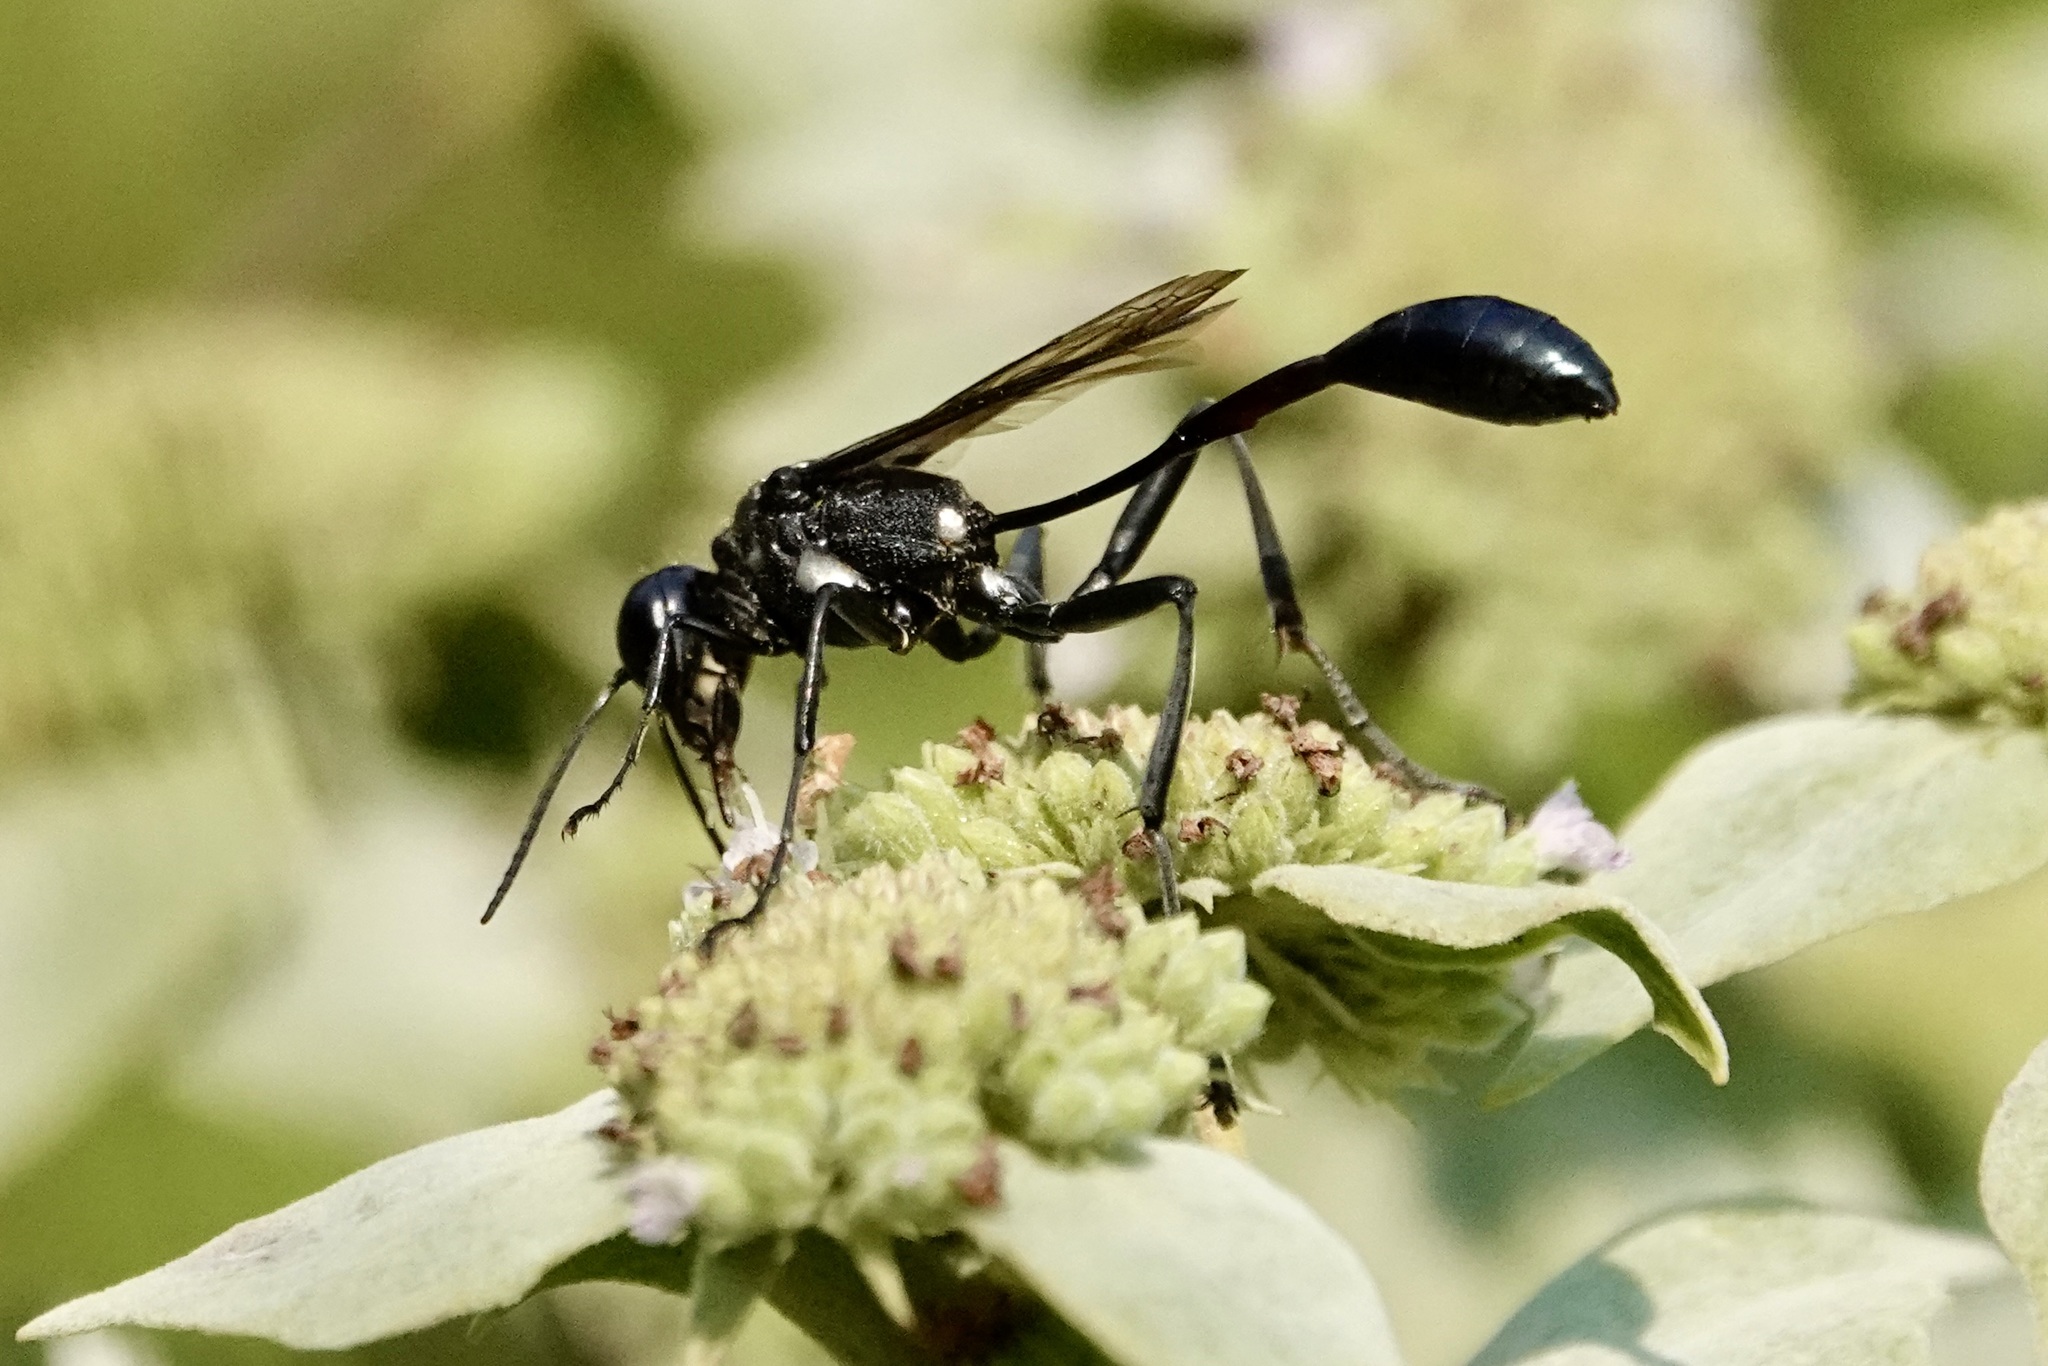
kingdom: Animalia
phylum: Arthropoda
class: Insecta
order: Hymenoptera
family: Sphecidae
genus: Eremnophila
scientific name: Eremnophila aureonotata
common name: Gold-marked thread-waisted wasp
